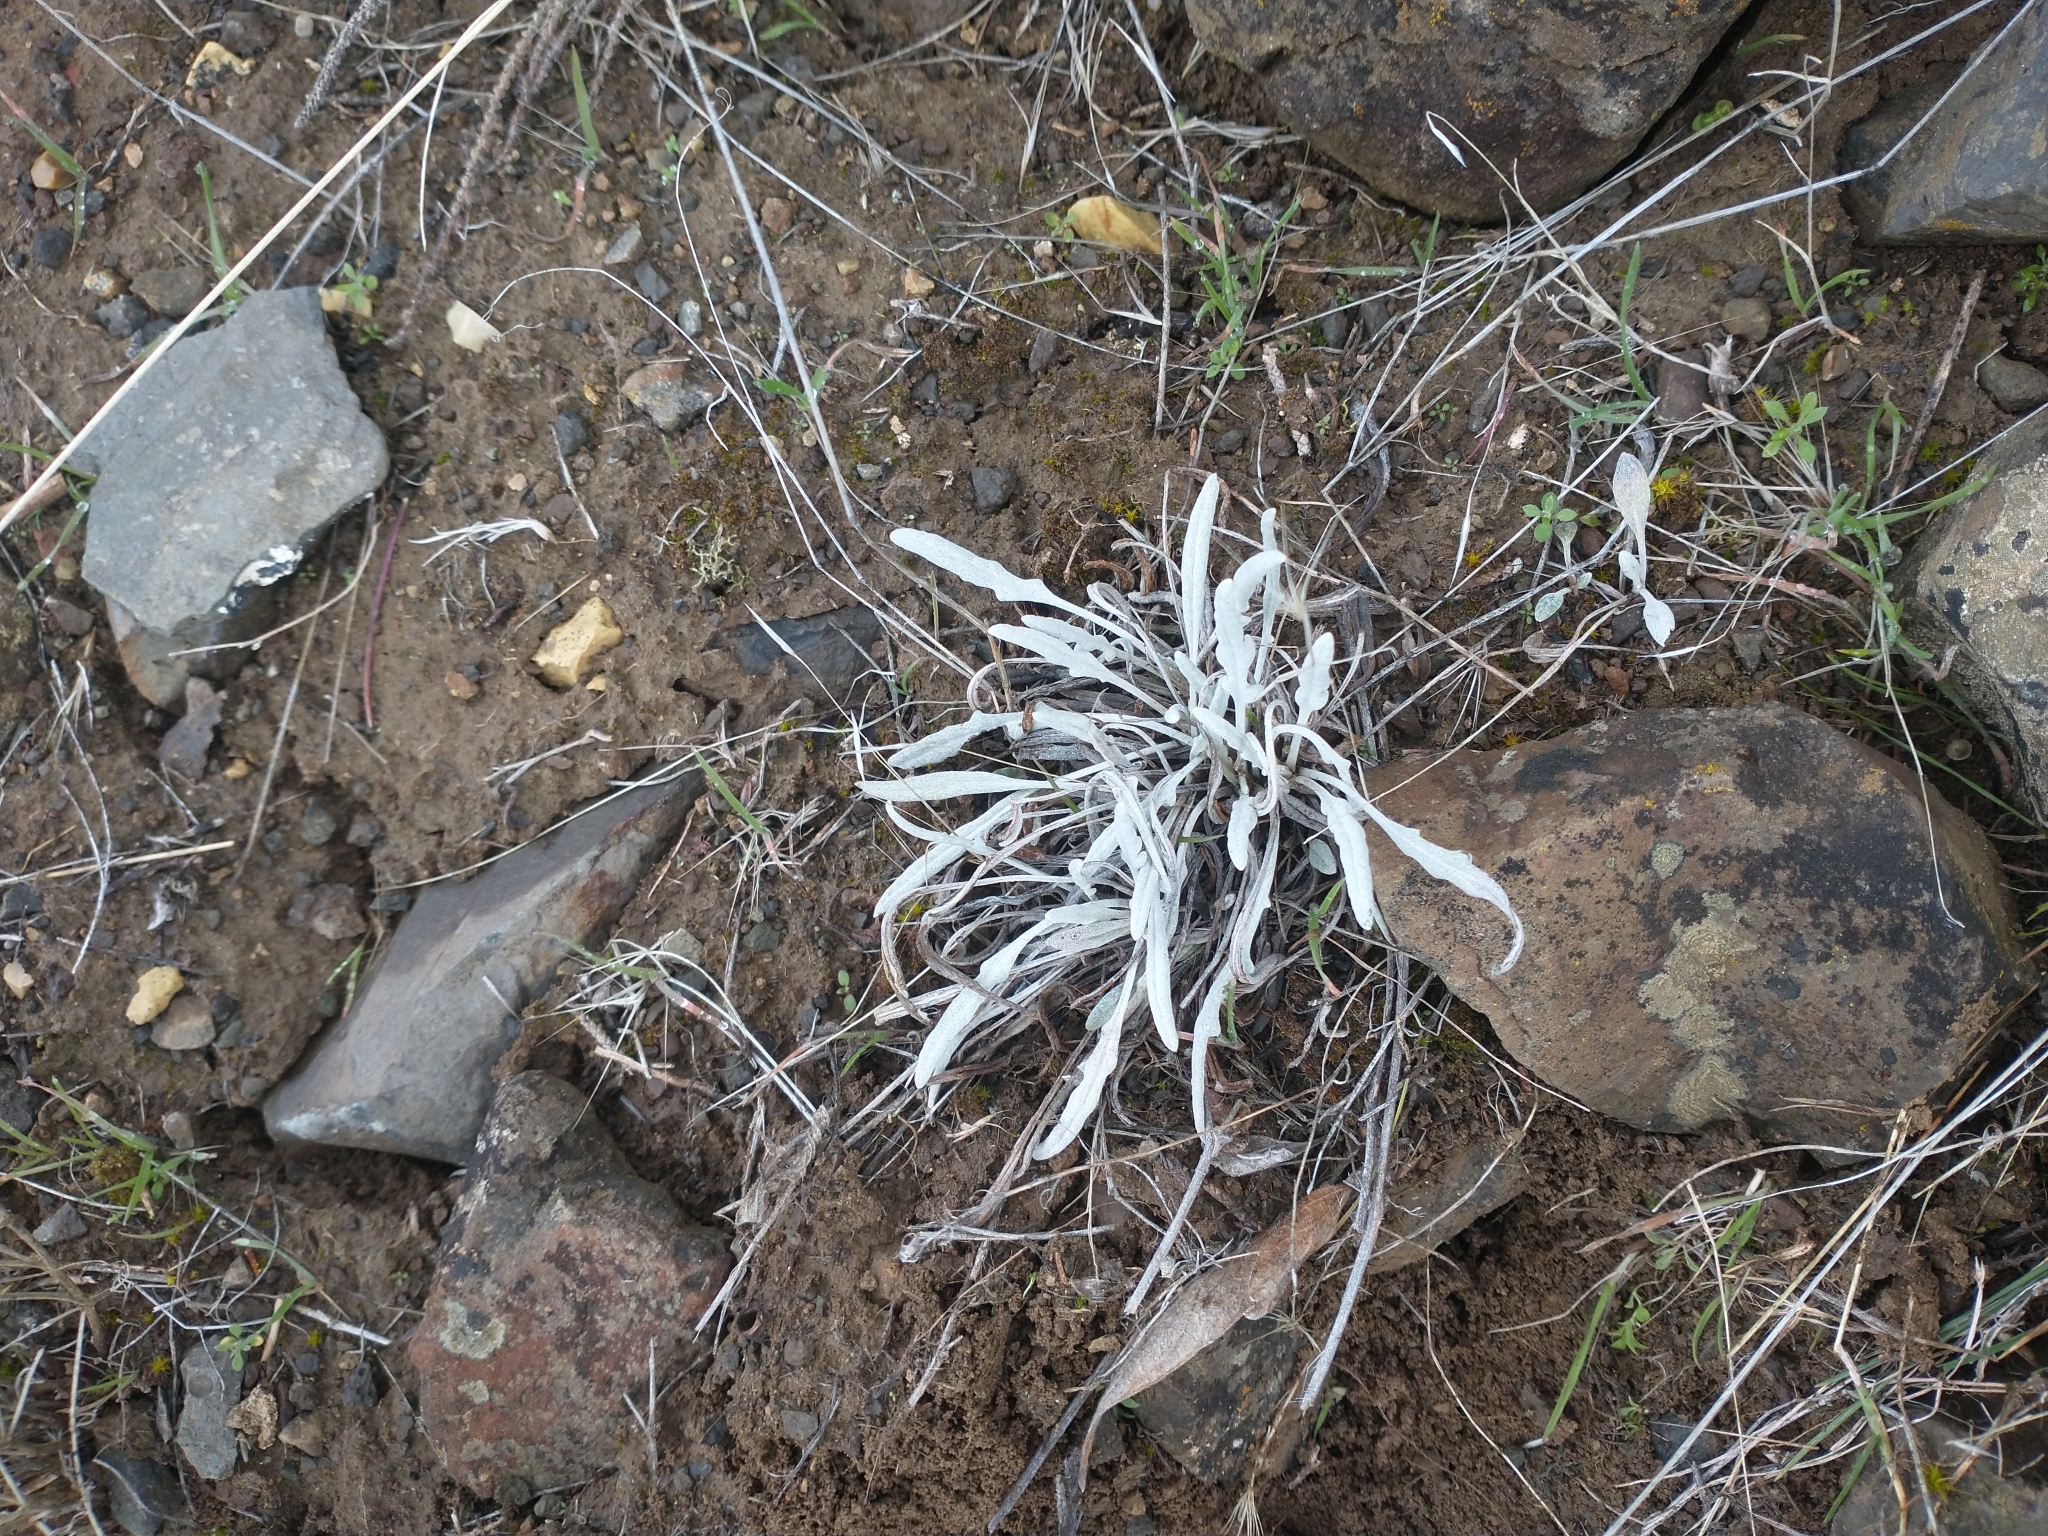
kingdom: Plantae
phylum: Tracheophyta
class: Magnoliopsida
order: Asterales
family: Asteraceae
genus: Packera
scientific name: Packera cana
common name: Woolly groundsel
